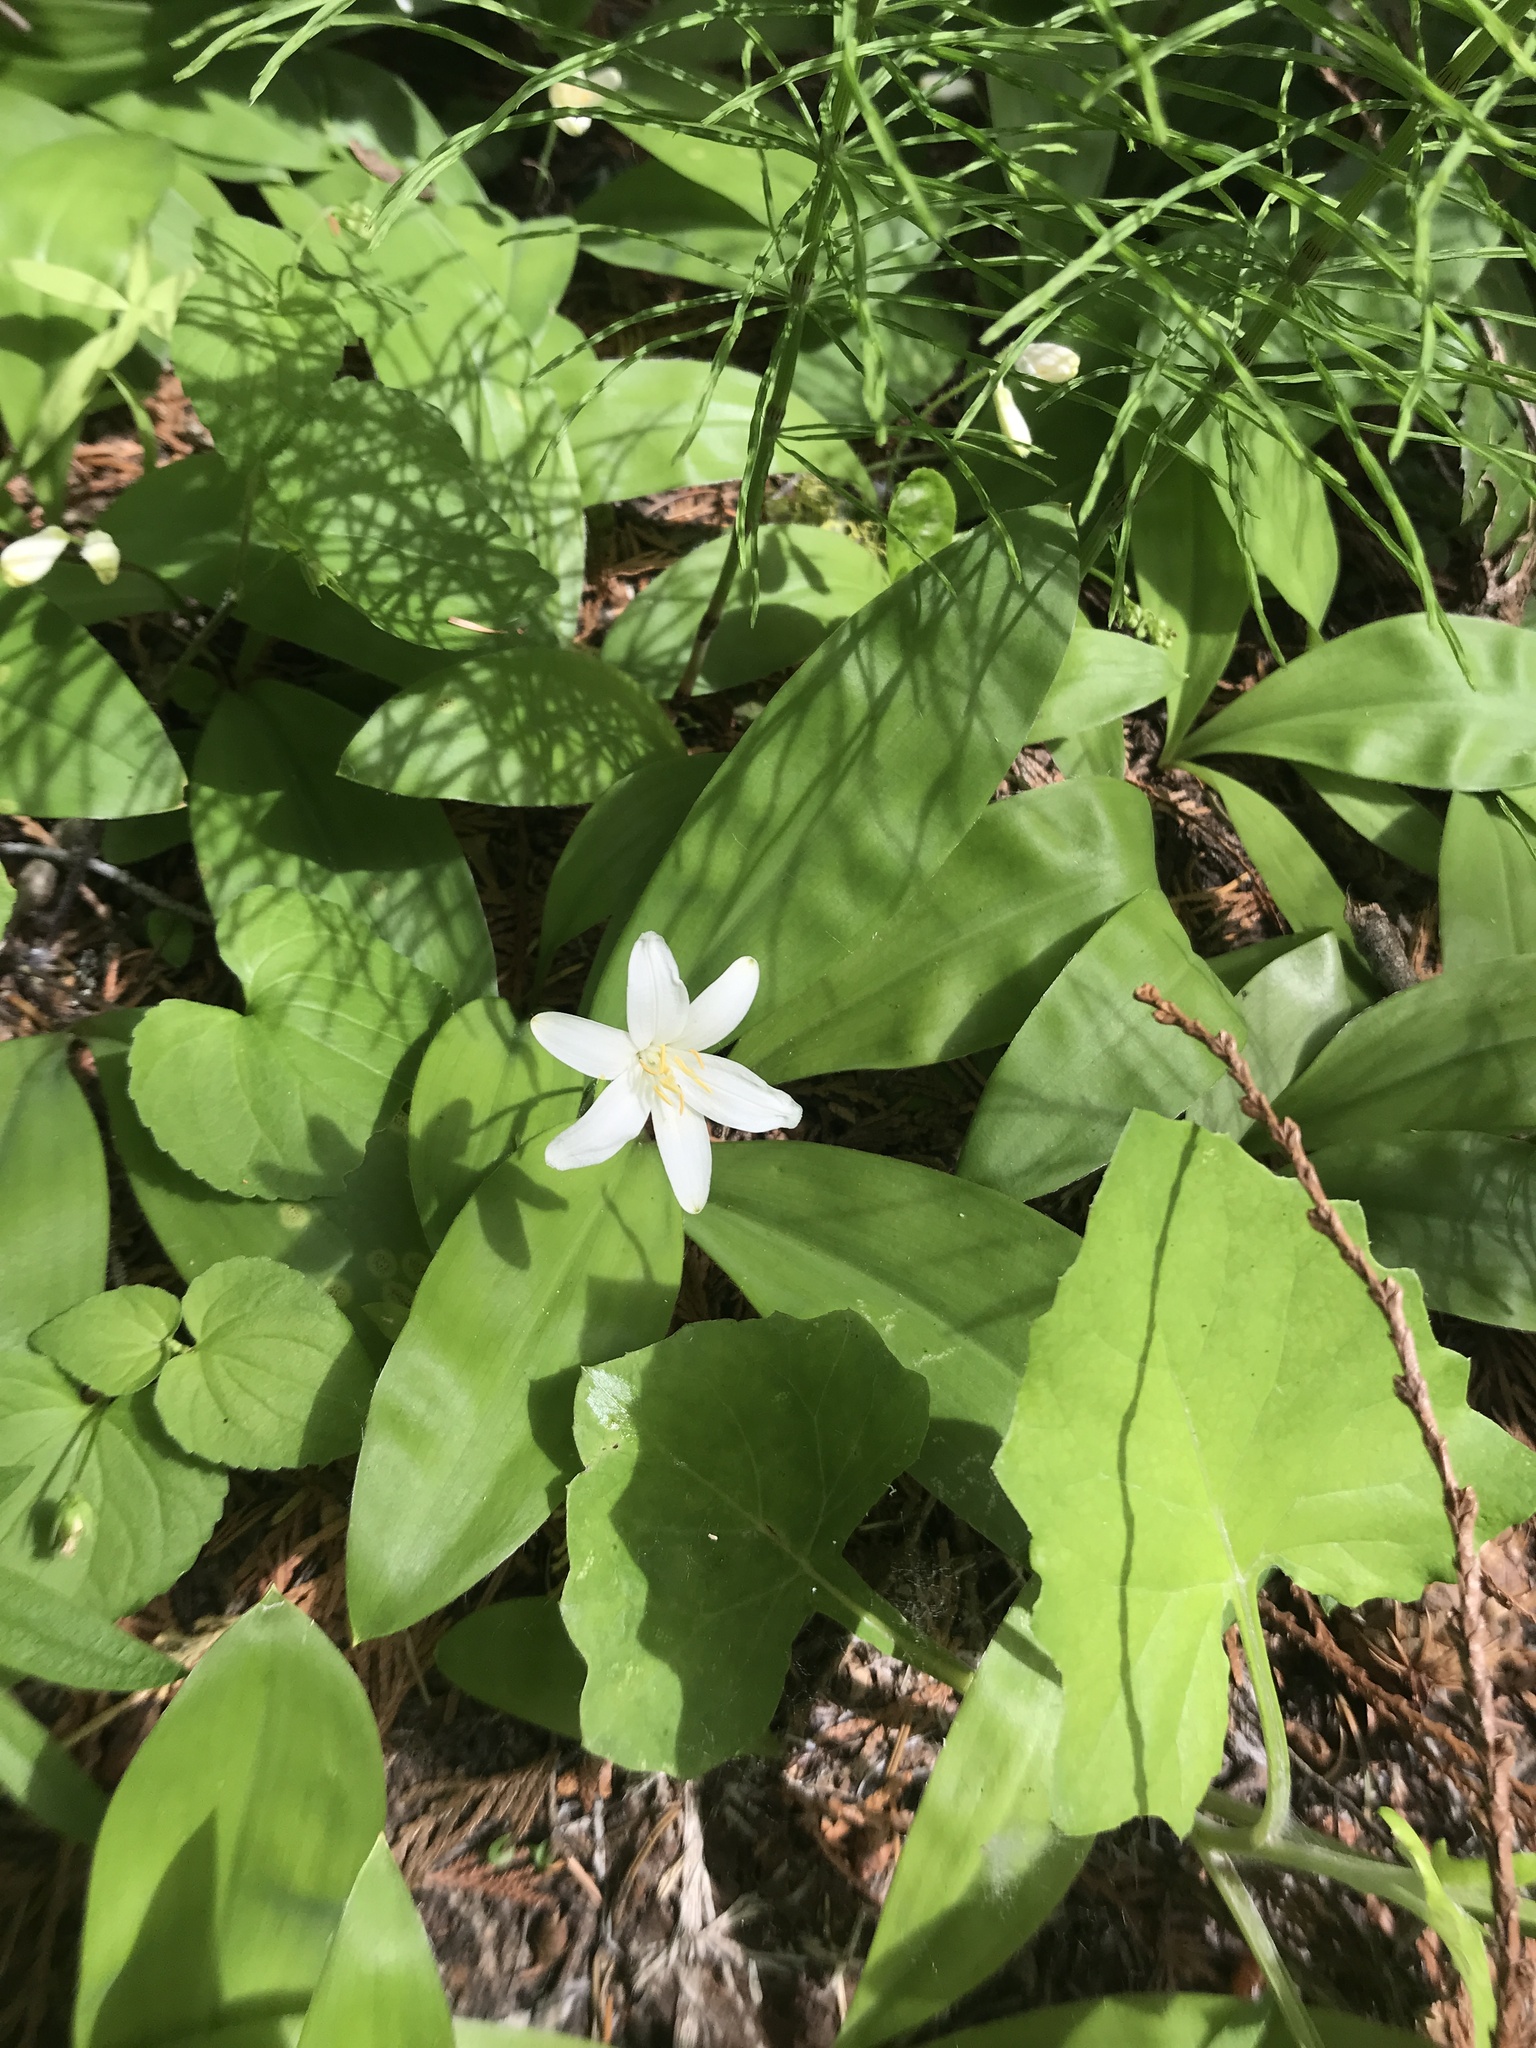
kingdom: Plantae
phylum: Tracheophyta
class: Liliopsida
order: Liliales
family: Liliaceae
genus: Clintonia
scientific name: Clintonia uniflora
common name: Queen's cup
